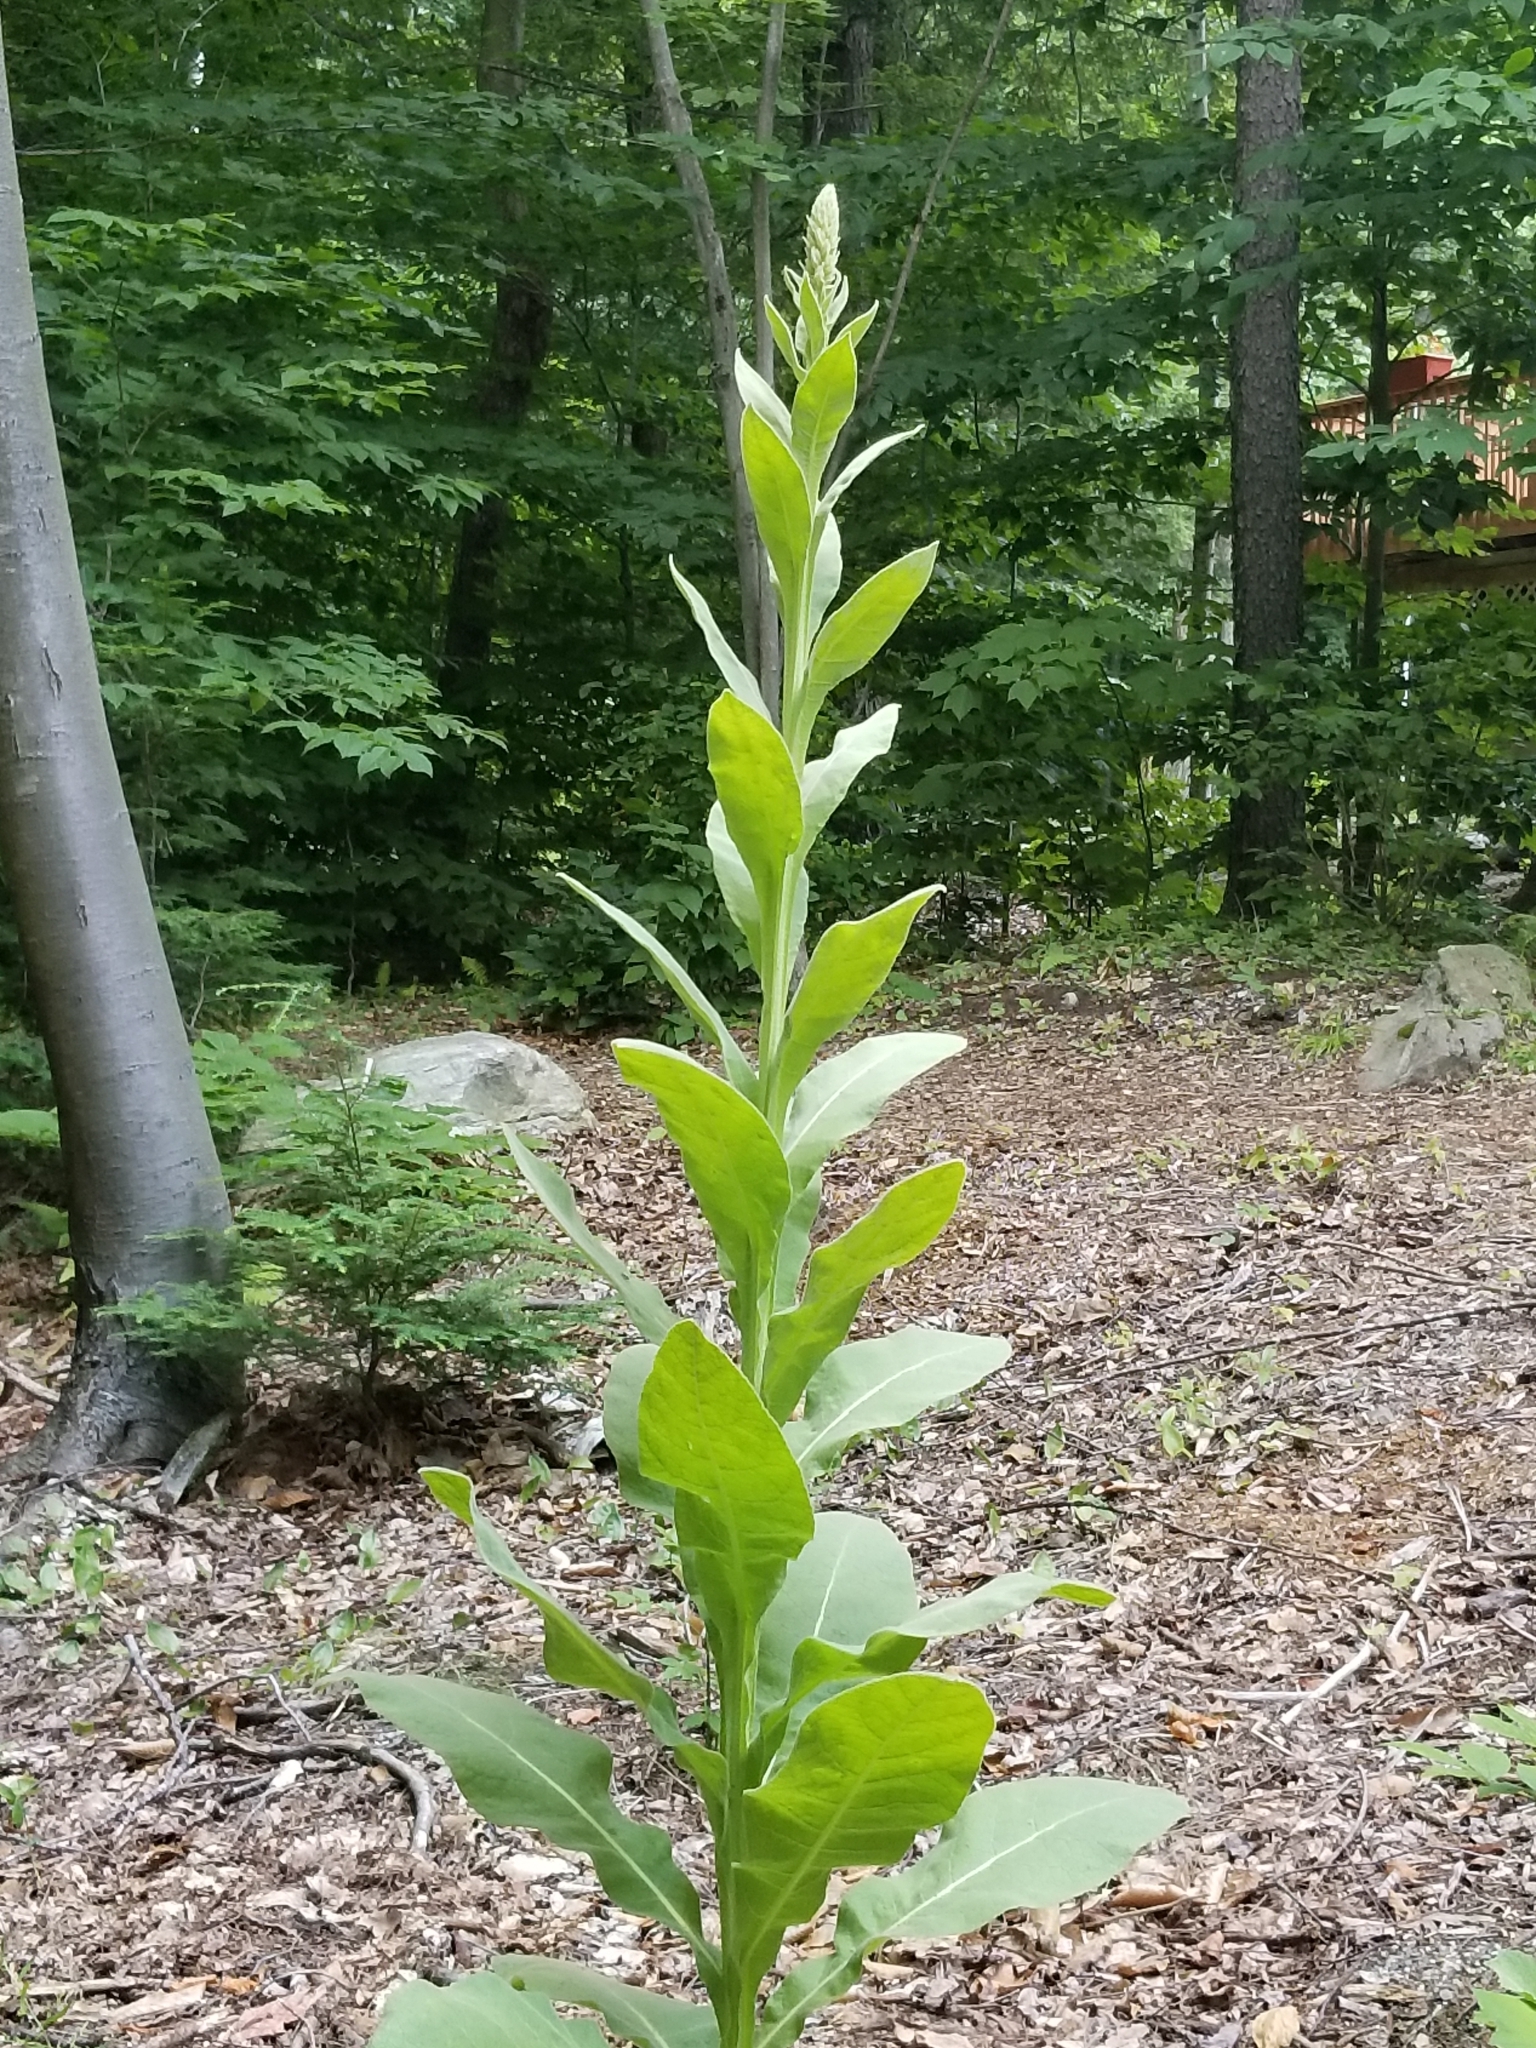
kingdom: Plantae
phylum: Tracheophyta
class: Magnoliopsida
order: Lamiales
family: Scrophulariaceae
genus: Verbascum
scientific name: Verbascum thapsus
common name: Common mullein
